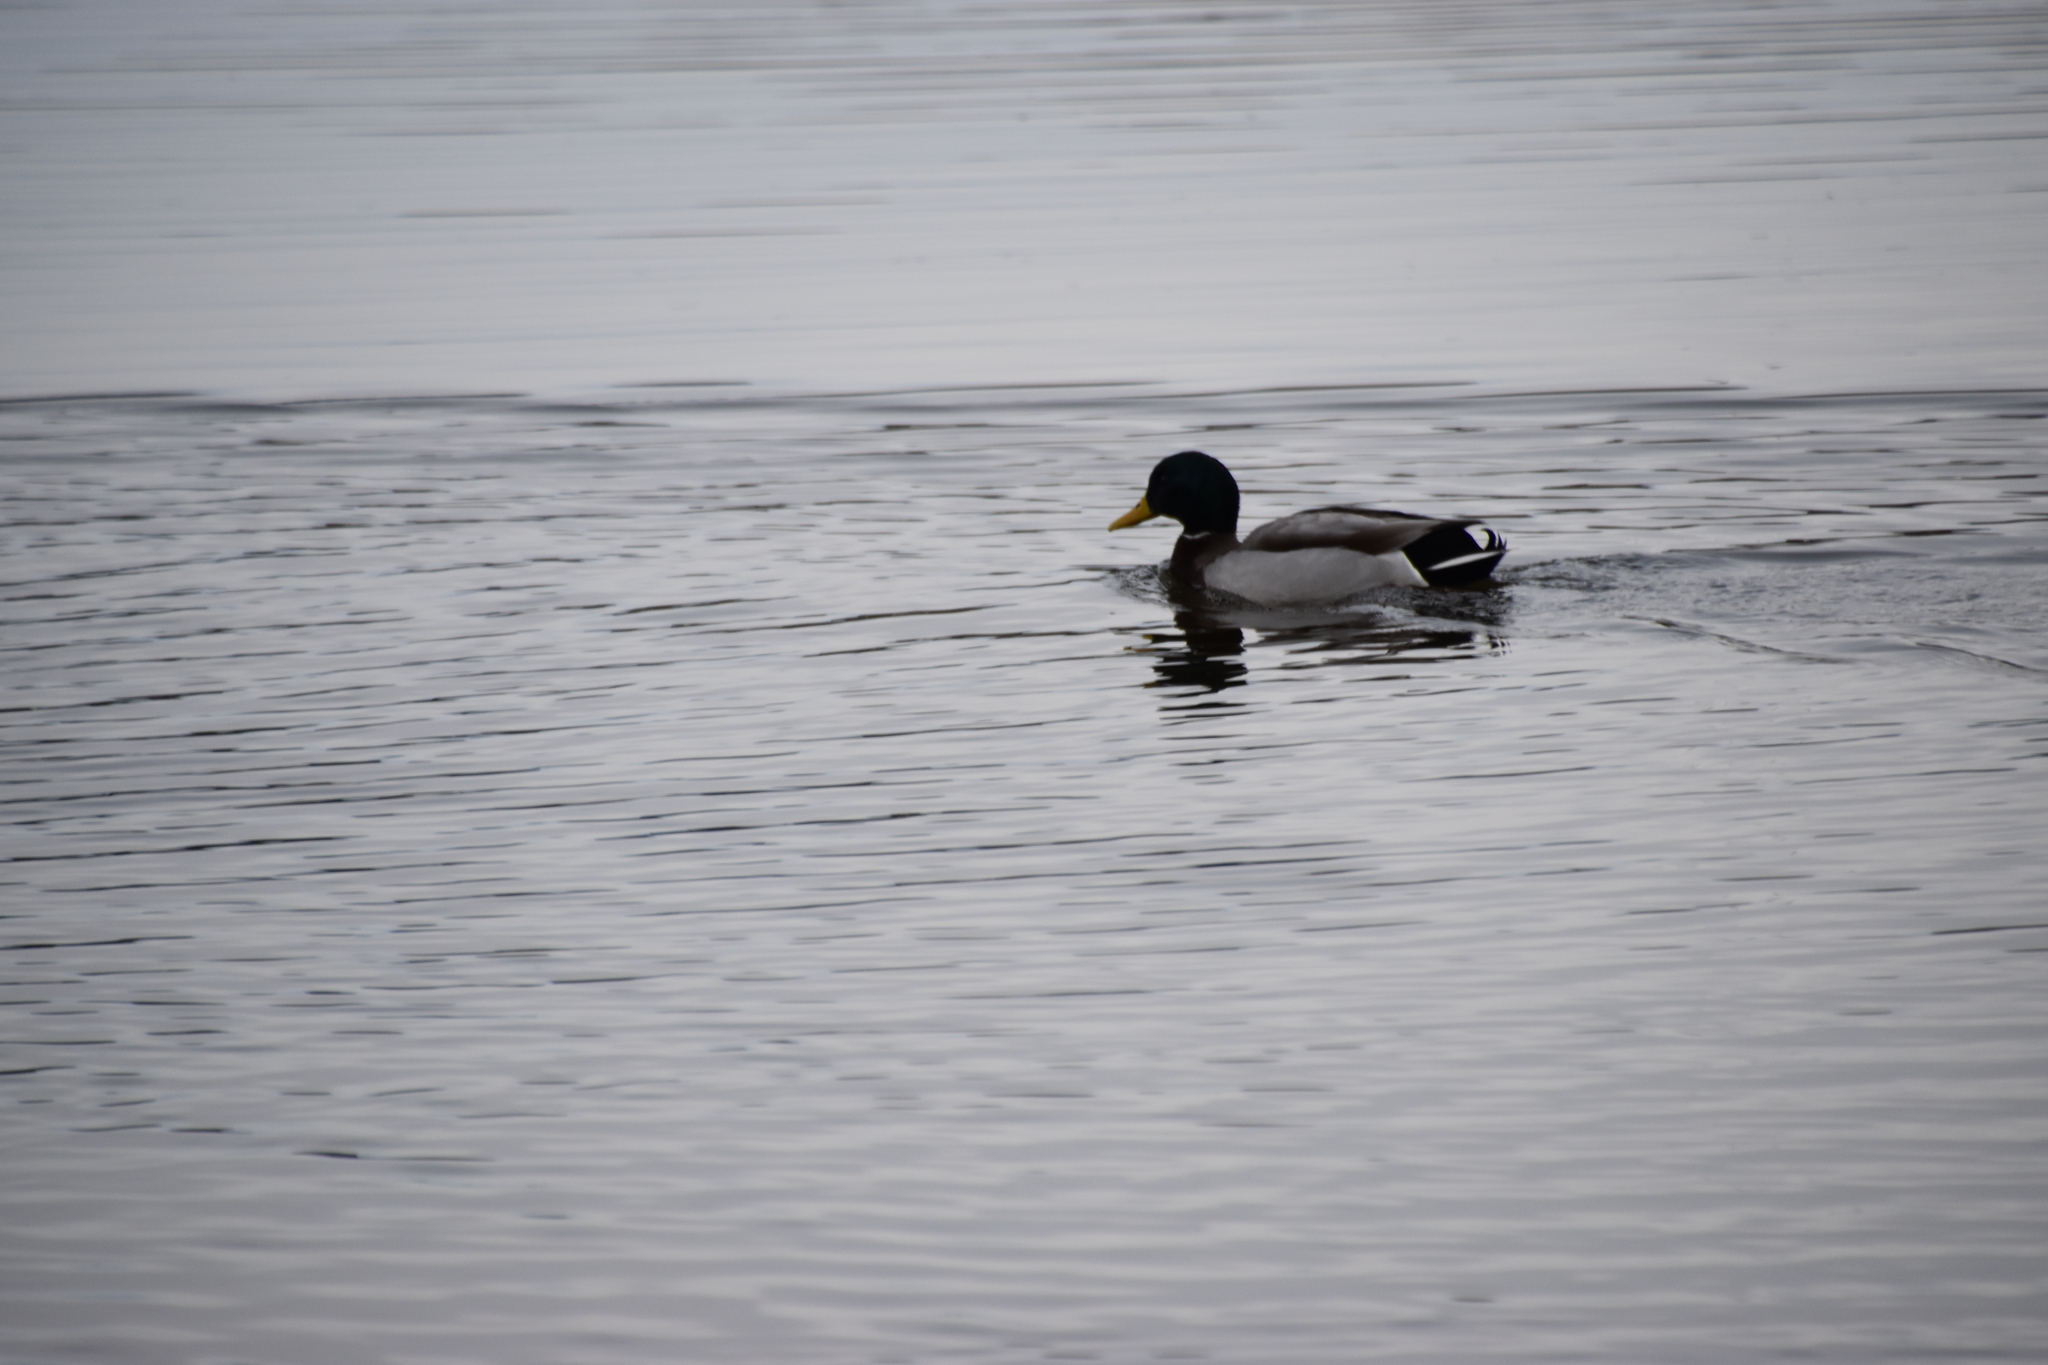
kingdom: Animalia
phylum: Chordata
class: Aves
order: Anseriformes
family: Anatidae
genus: Anas
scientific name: Anas platyrhynchos
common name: Mallard
